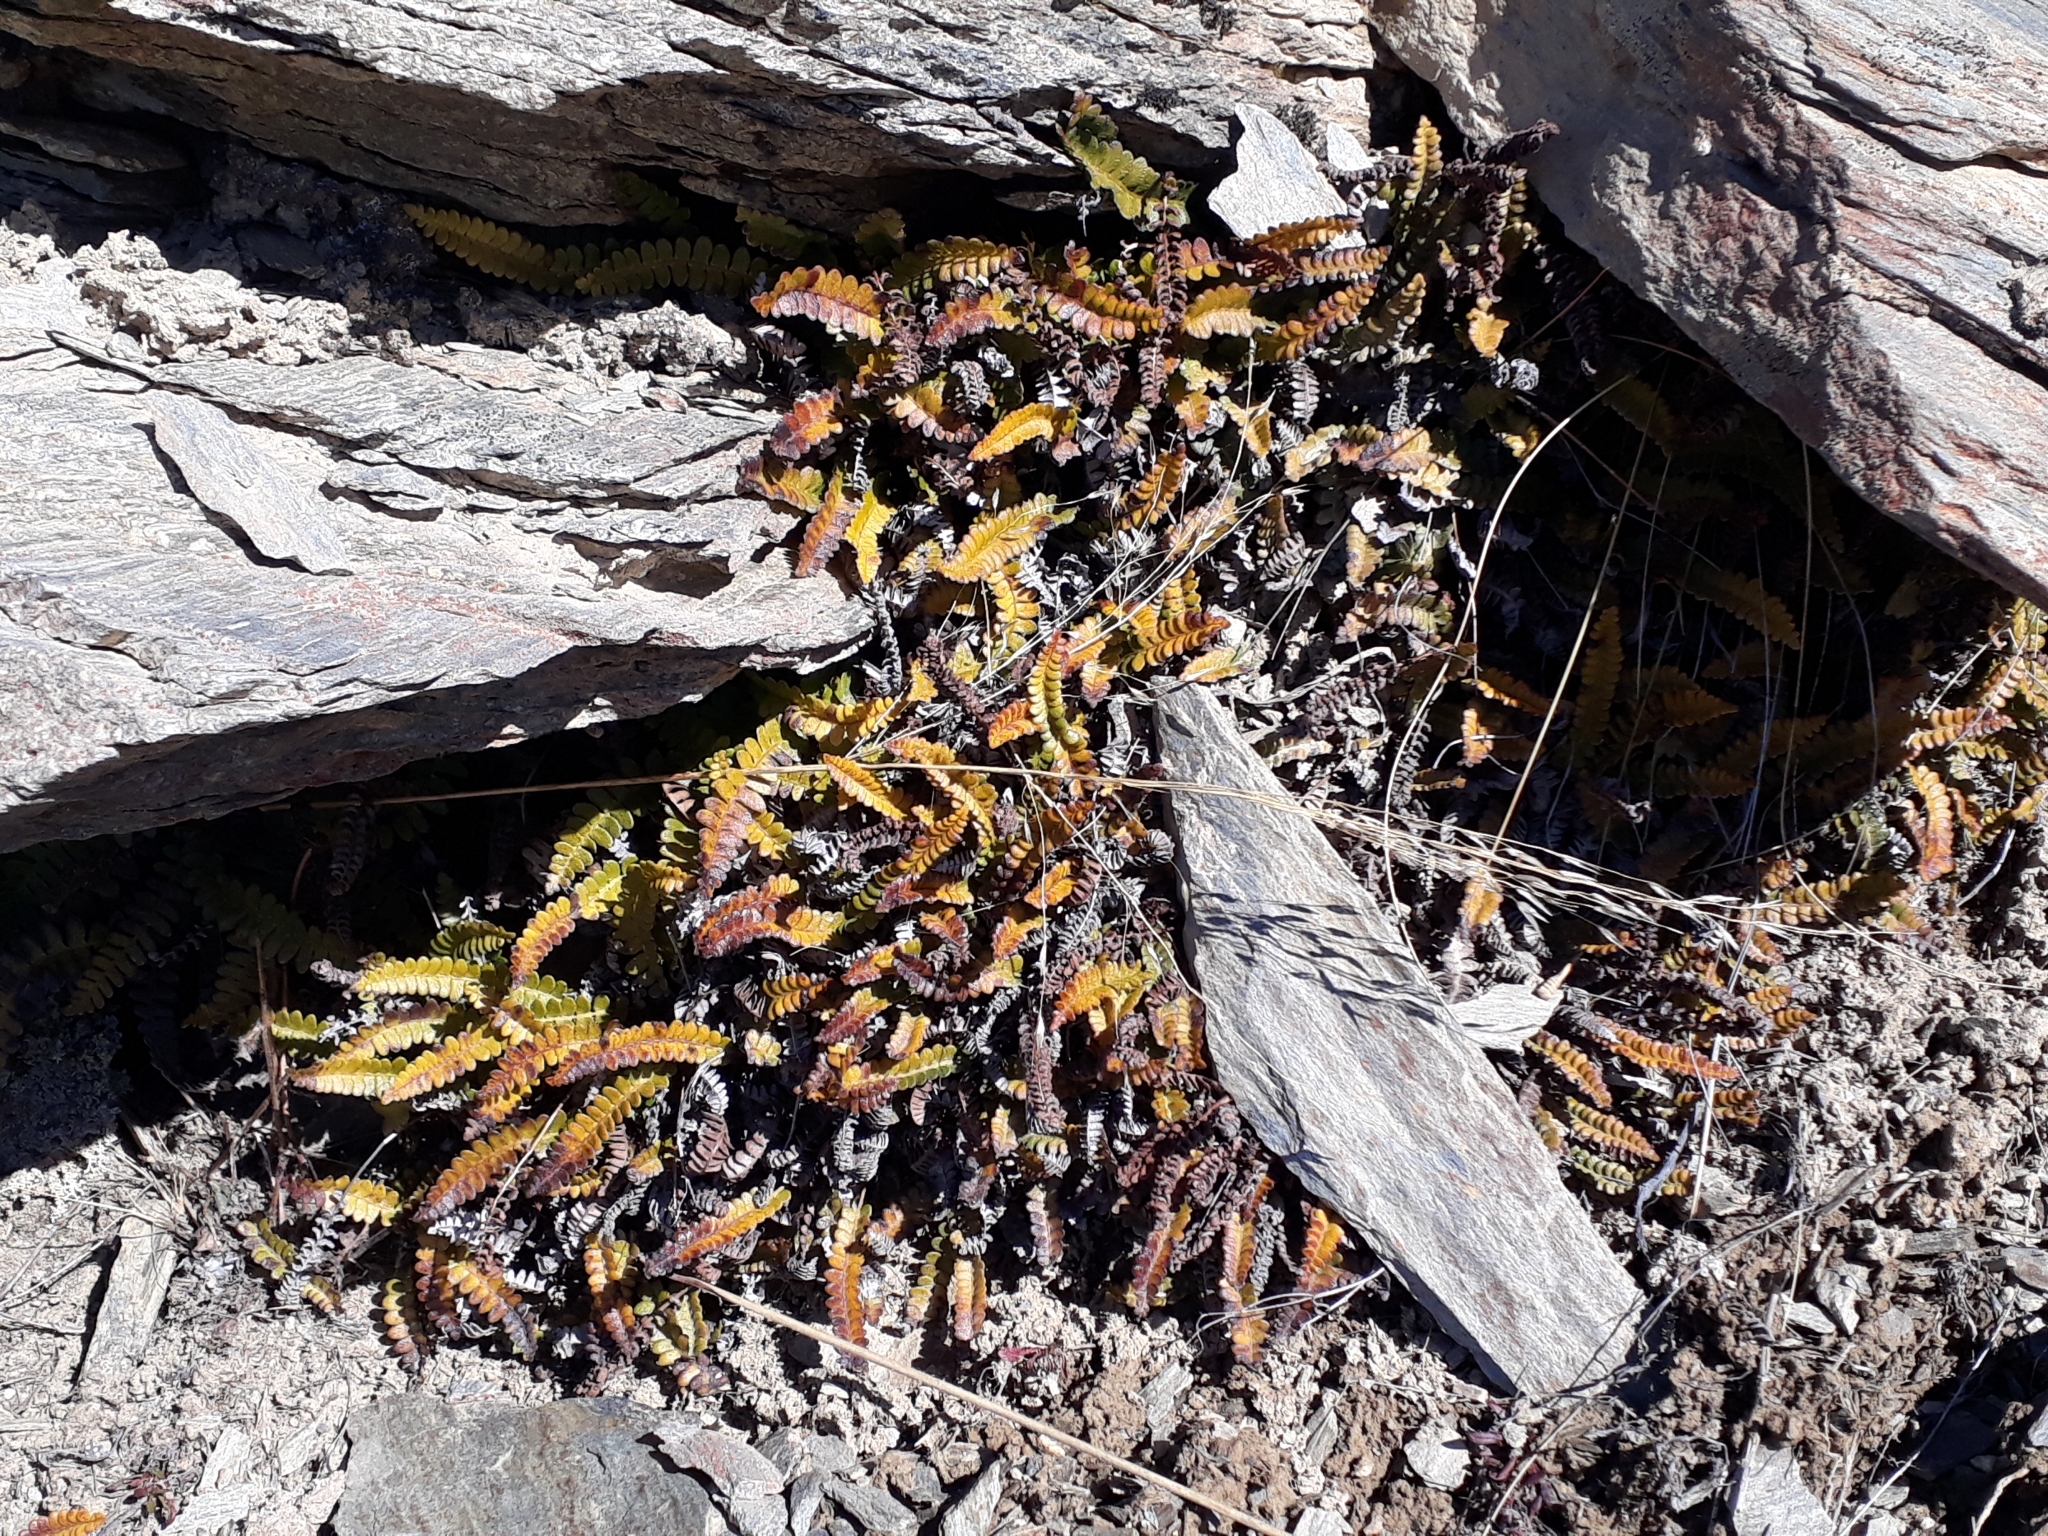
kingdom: Plantae
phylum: Tracheophyta
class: Polypodiopsida
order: Polypodiales
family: Blechnaceae
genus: Austroblechnum
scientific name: Austroblechnum penna-marina
